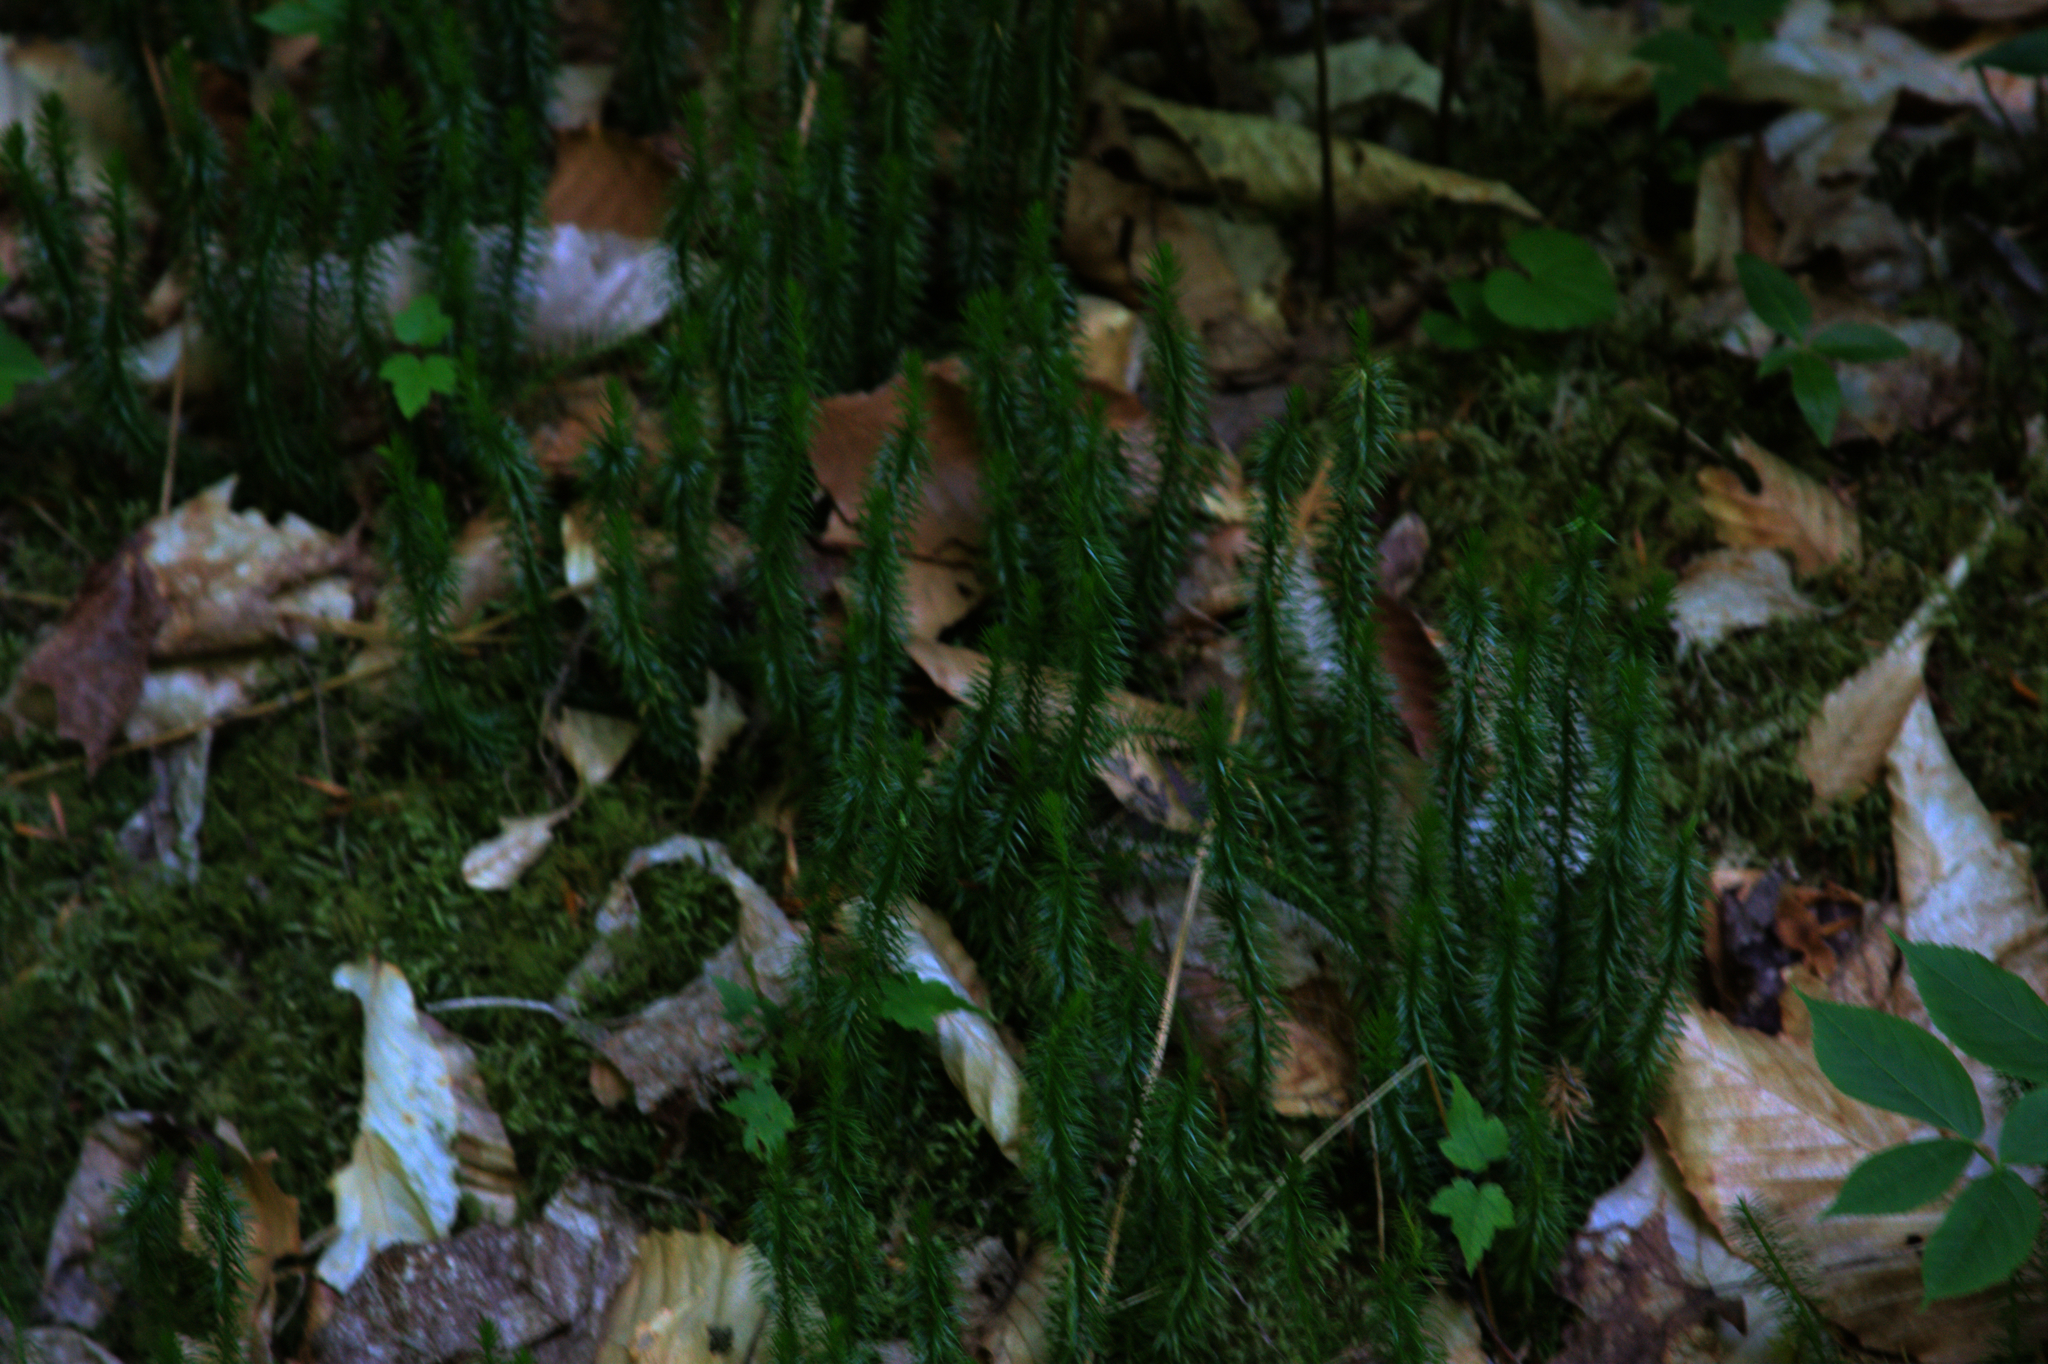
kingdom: Plantae
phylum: Tracheophyta
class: Lycopodiopsida
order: Lycopodiales
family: Lycopodiaceae
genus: Spinulum
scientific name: Spinulum annotinum
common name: Interrupted club-moss
